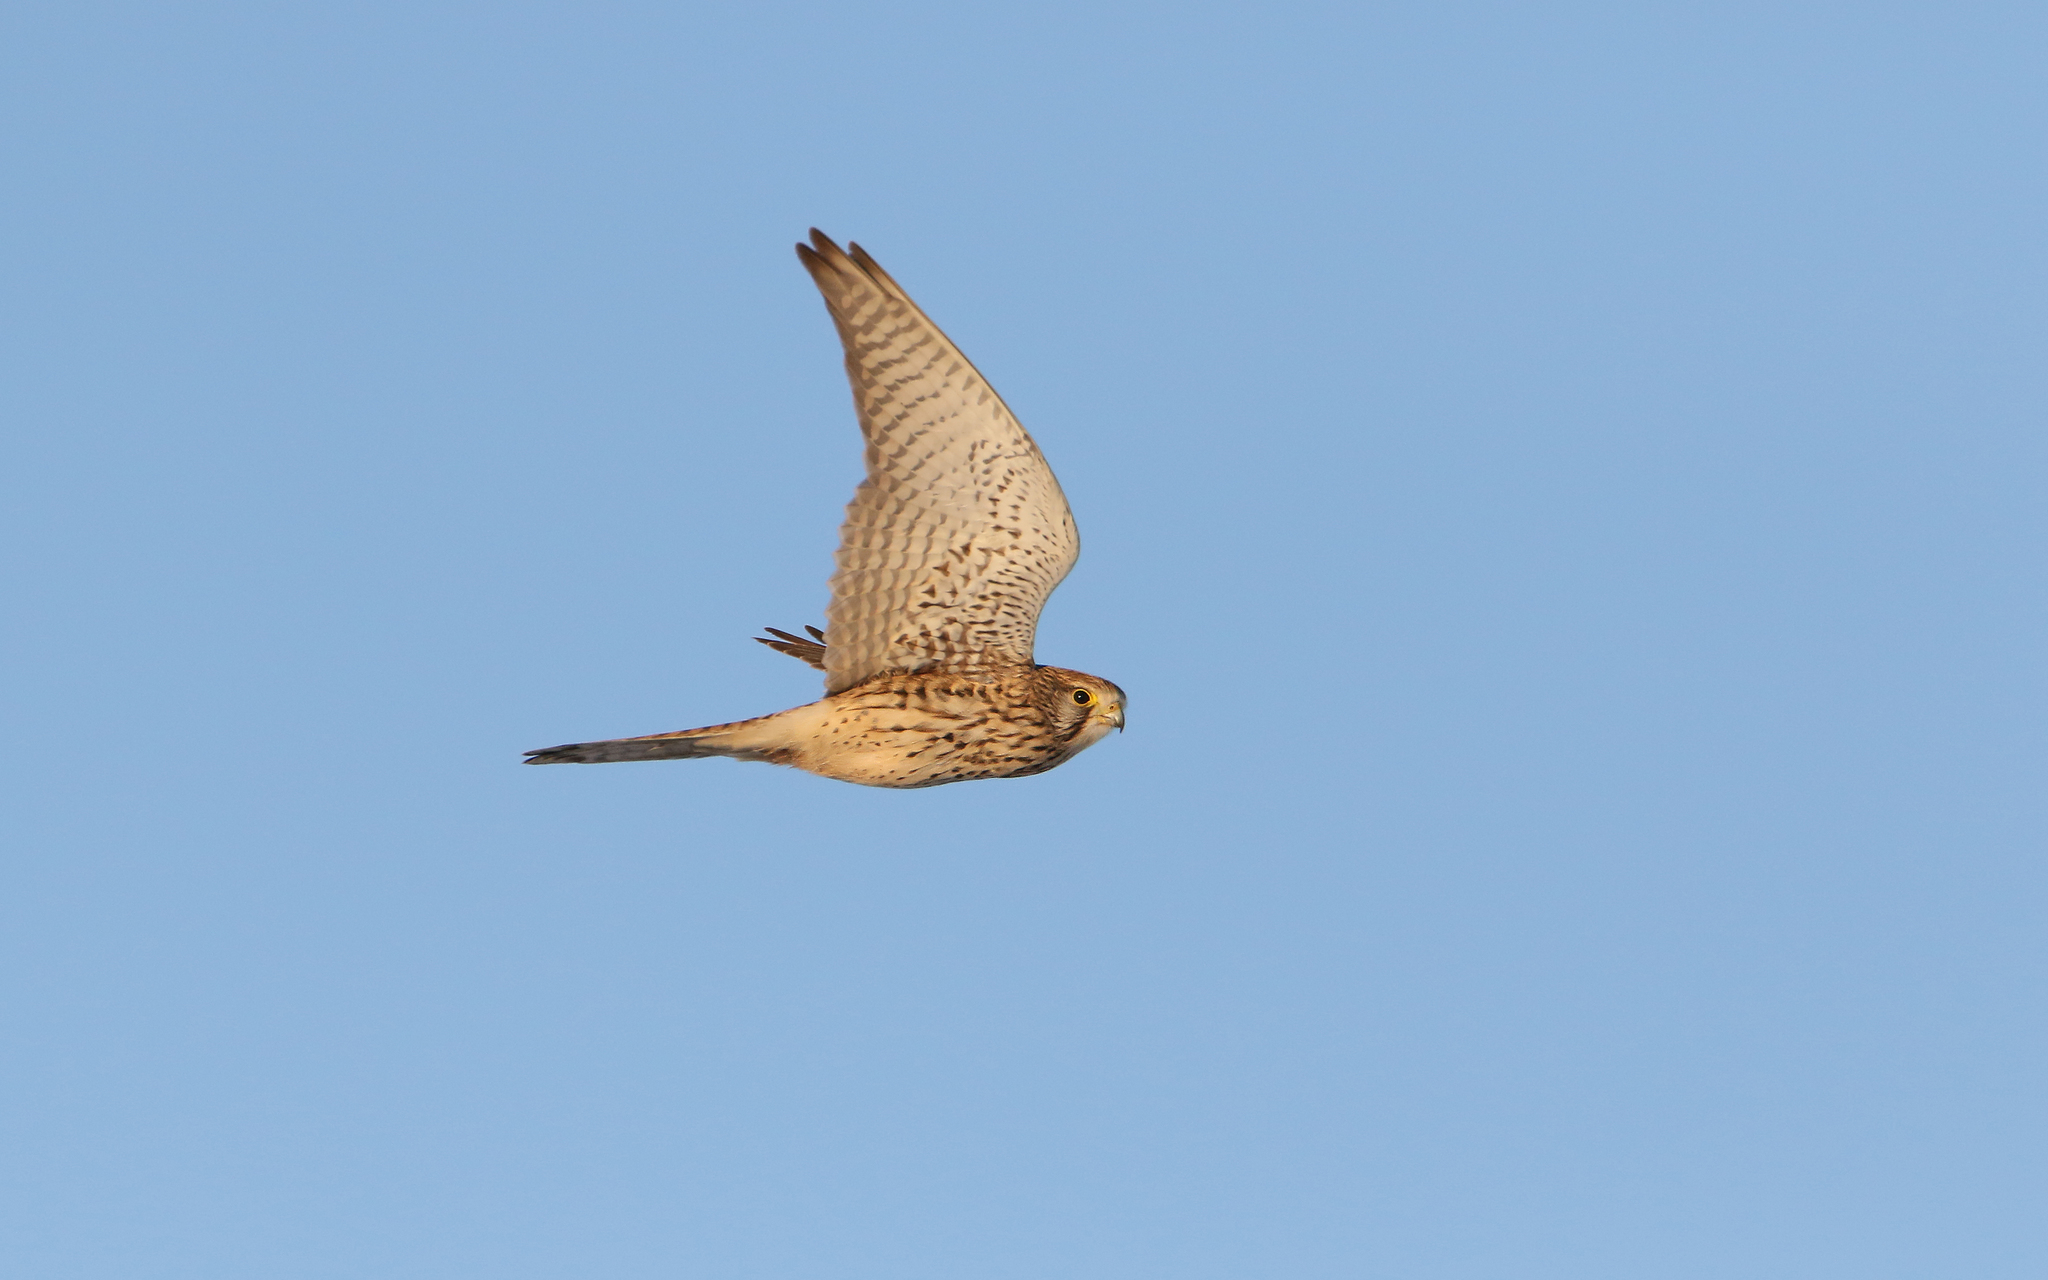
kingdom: Animalia
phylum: Chordata
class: Aves
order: Falconiformes
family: Falconidae
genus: Falco
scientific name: Falco tinnunculus
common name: Common kestrel
